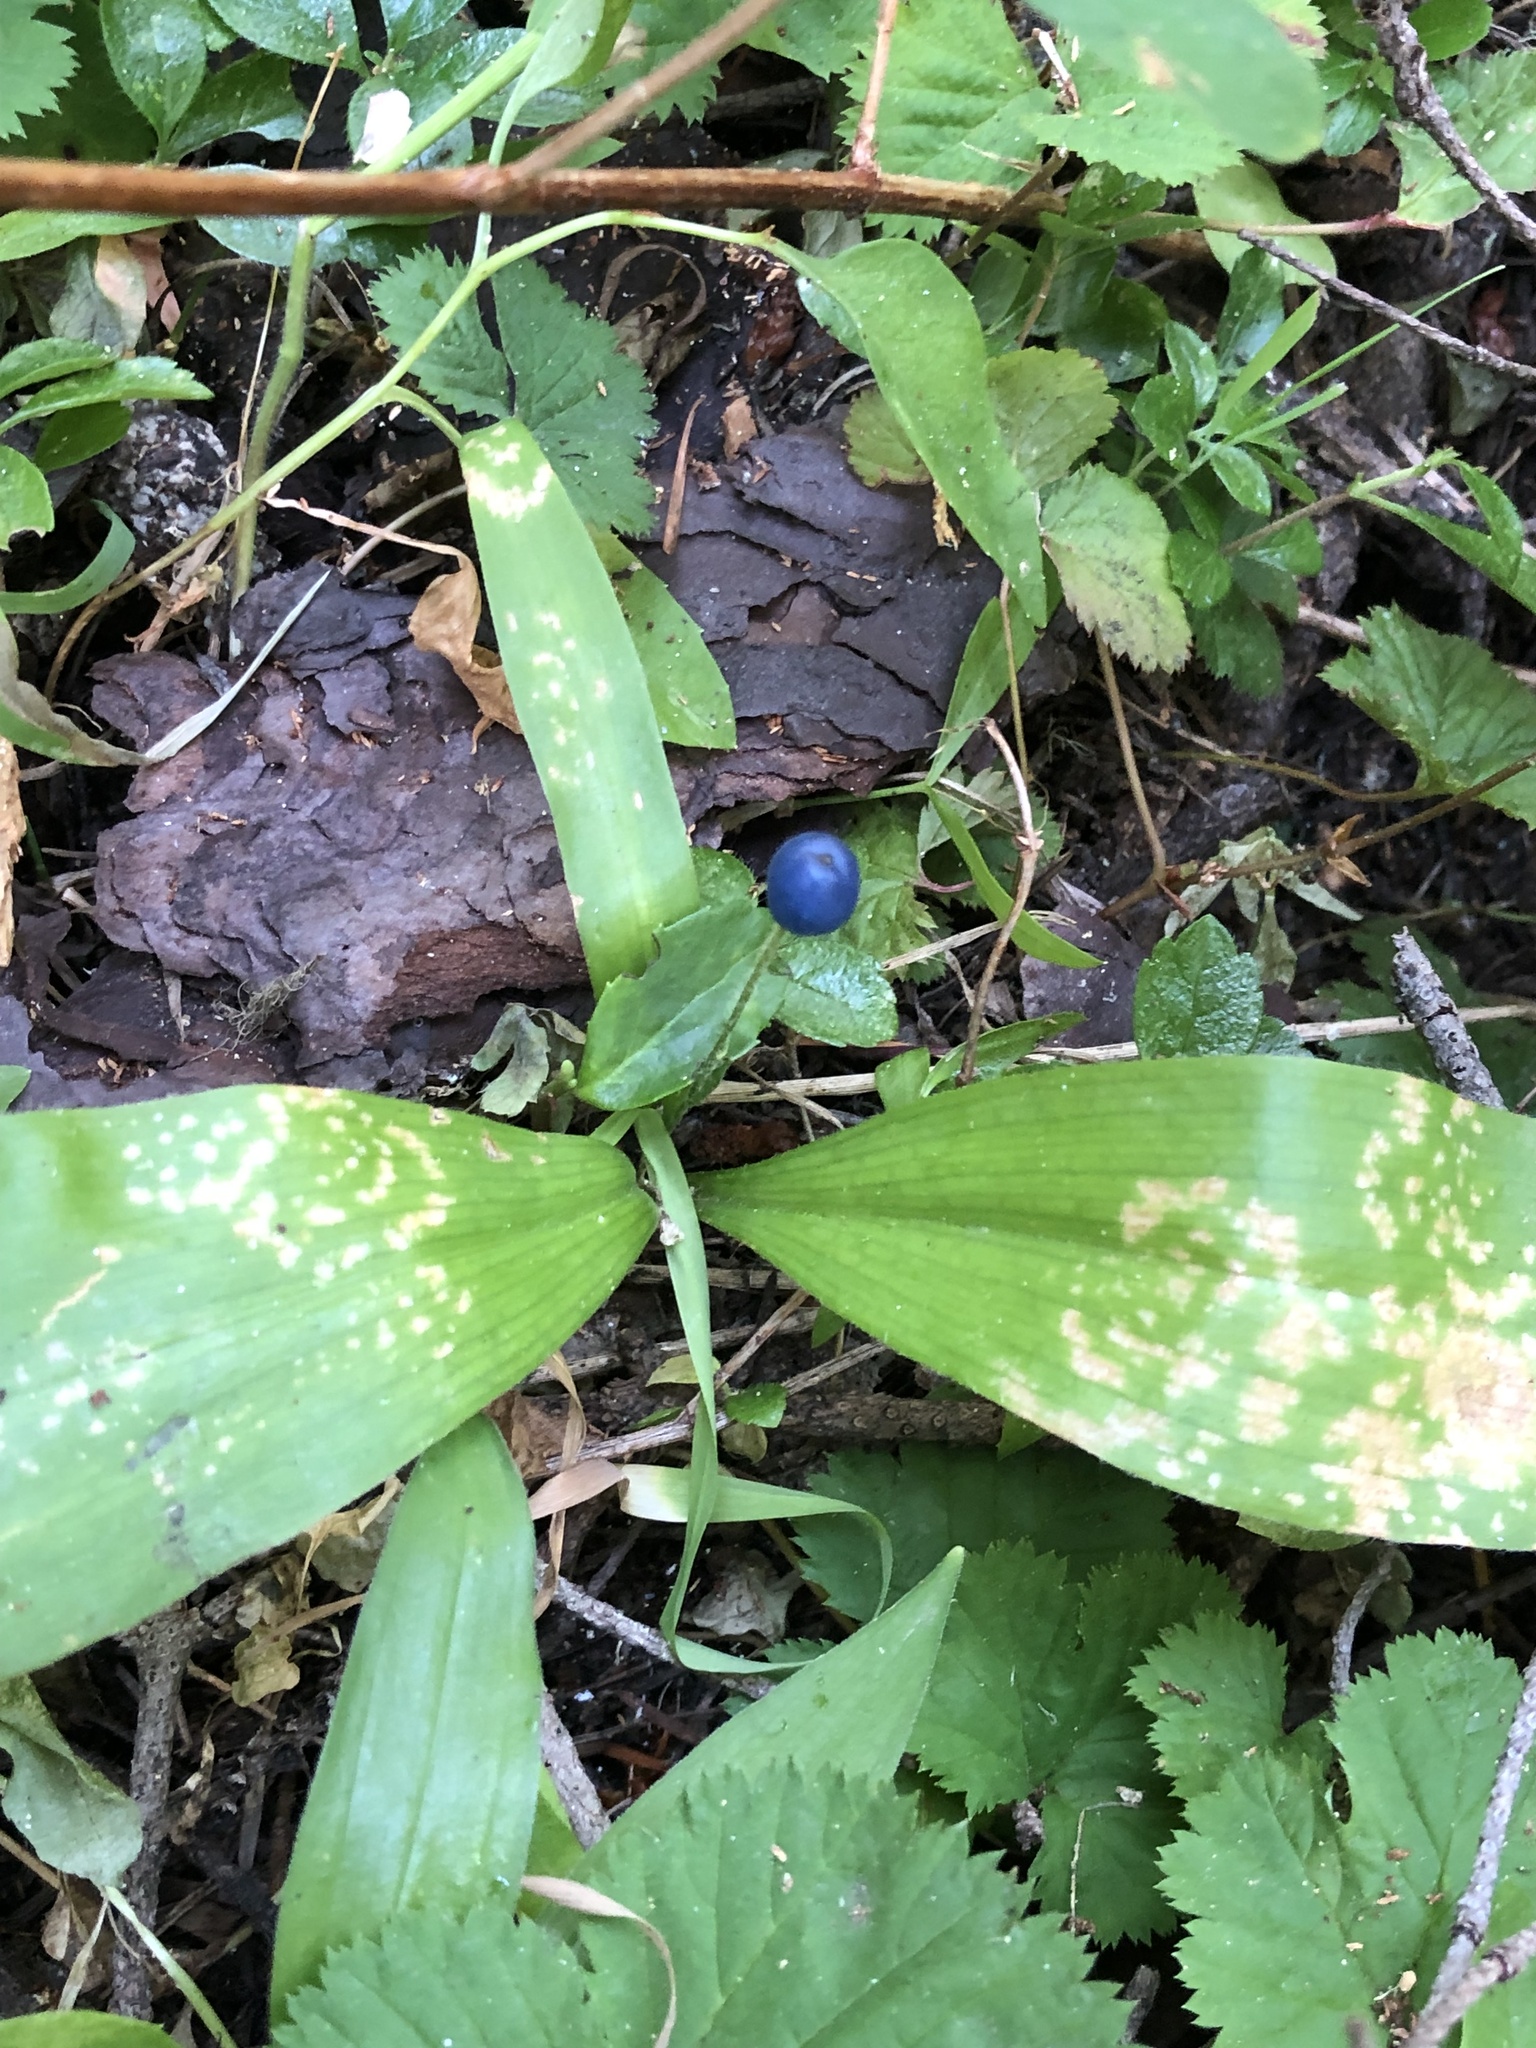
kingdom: Plantae
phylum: Tracheophyta
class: Liliopsida
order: Liliales
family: Liliaceae
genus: Clintonia
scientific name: Clintonia uniflora
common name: Queen's cup
